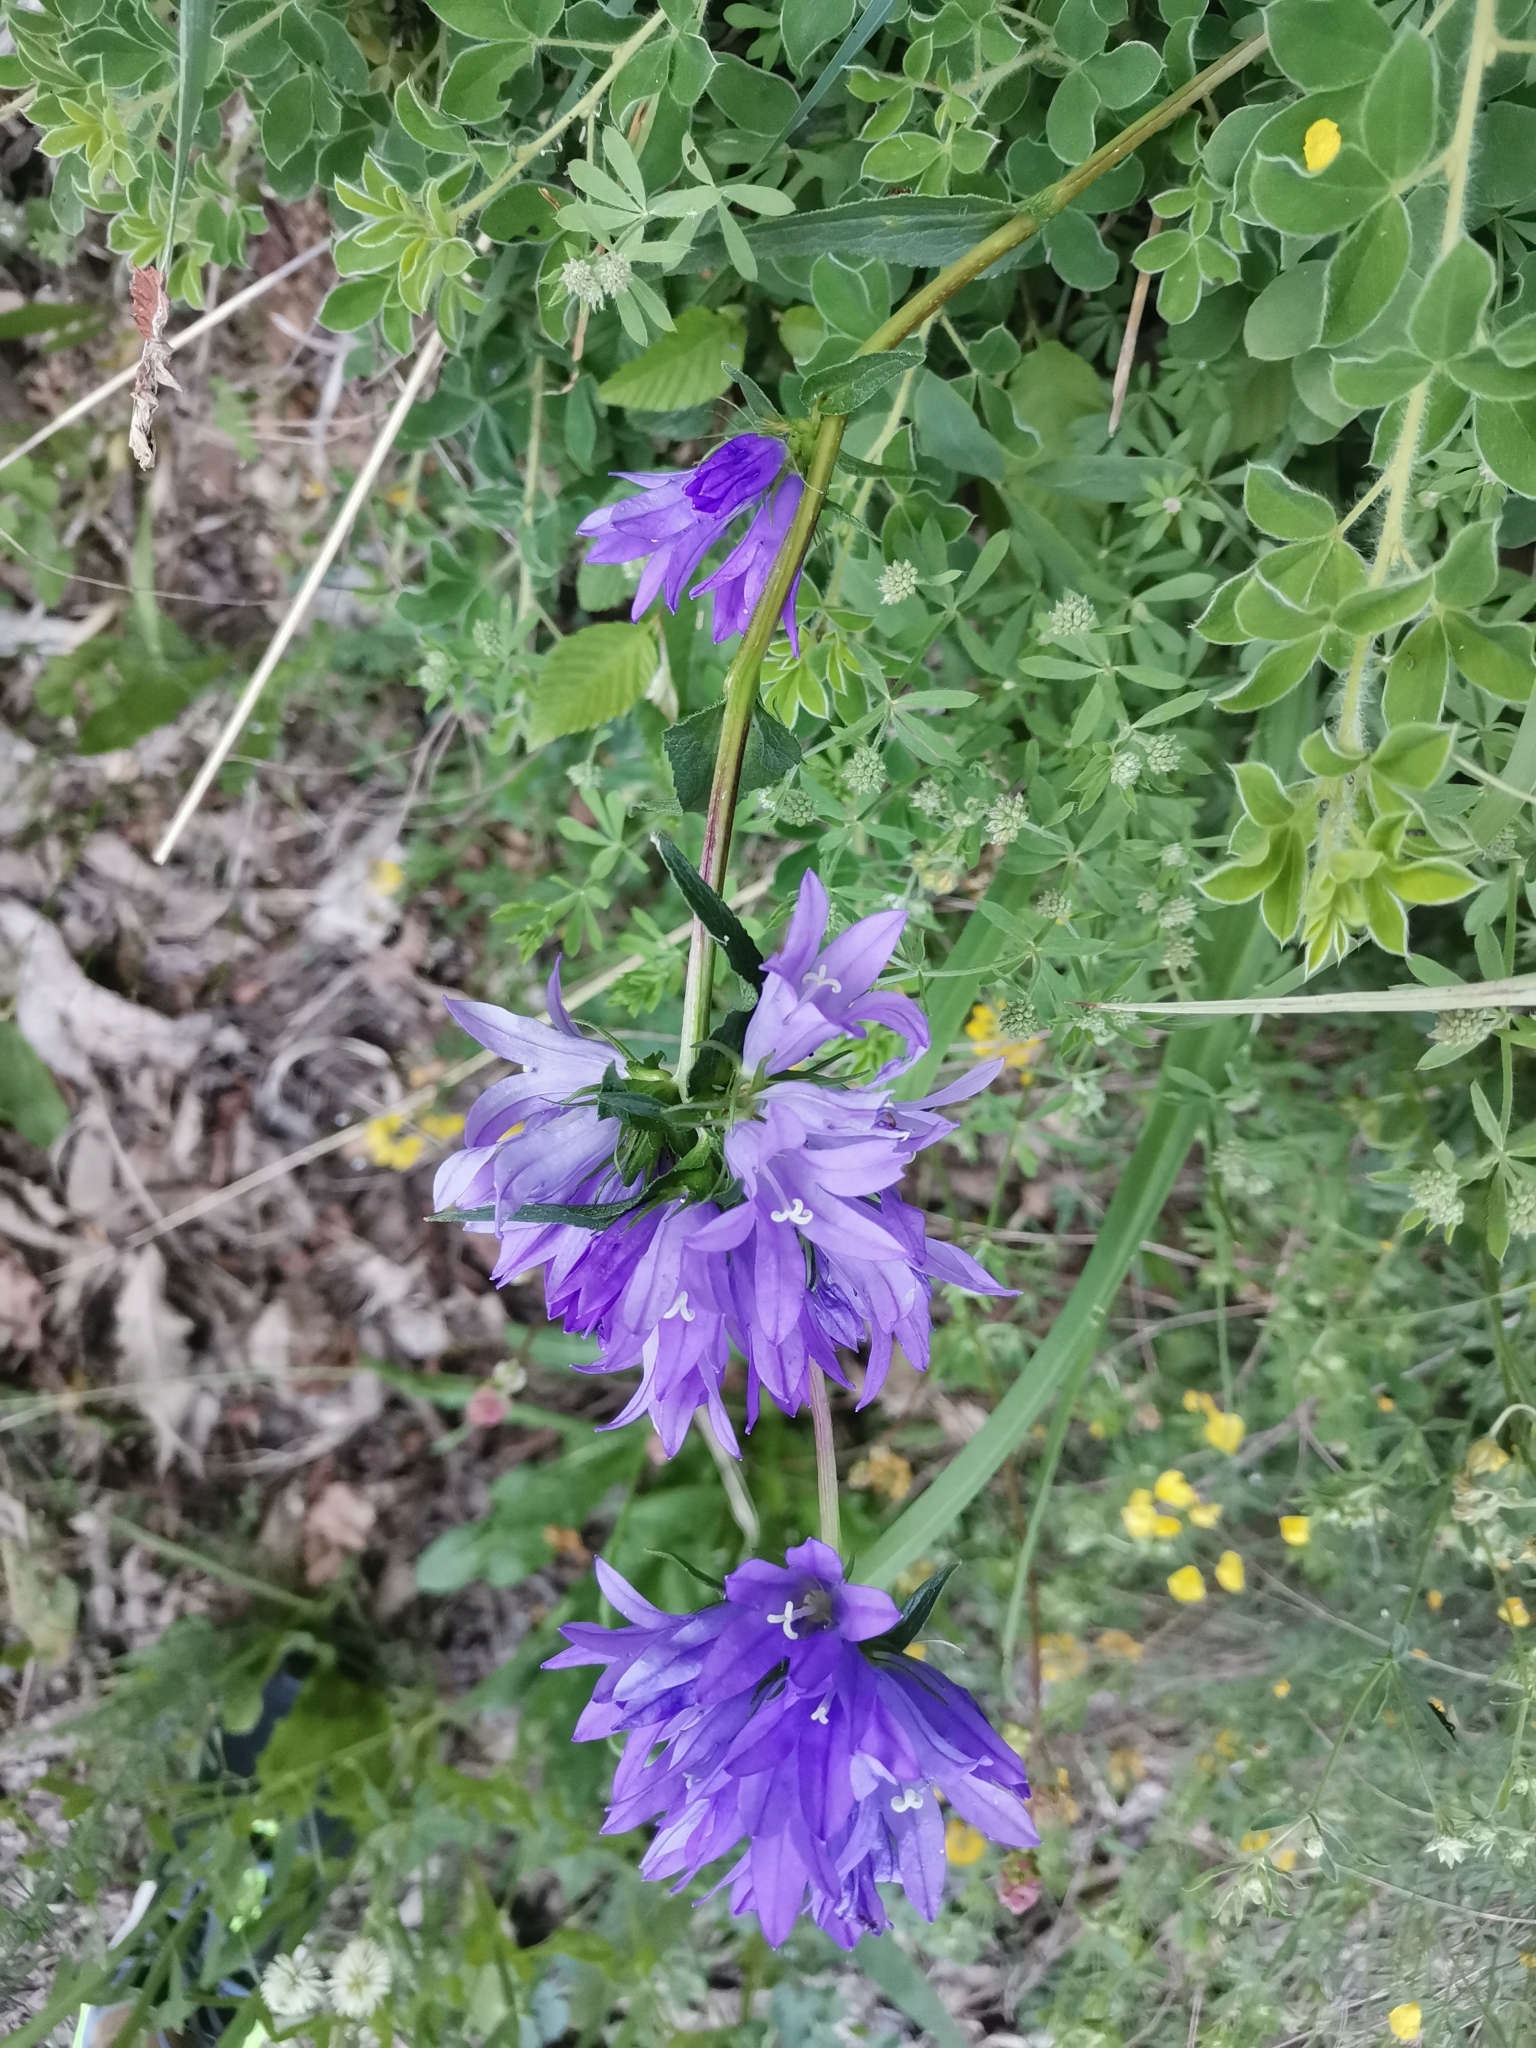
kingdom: Plantae
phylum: Tracheophyta
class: Magnoliopsida
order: Asterales
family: Campanulaceae
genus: Campanula
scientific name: Campanula glomerata
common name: Clustered bellflower
